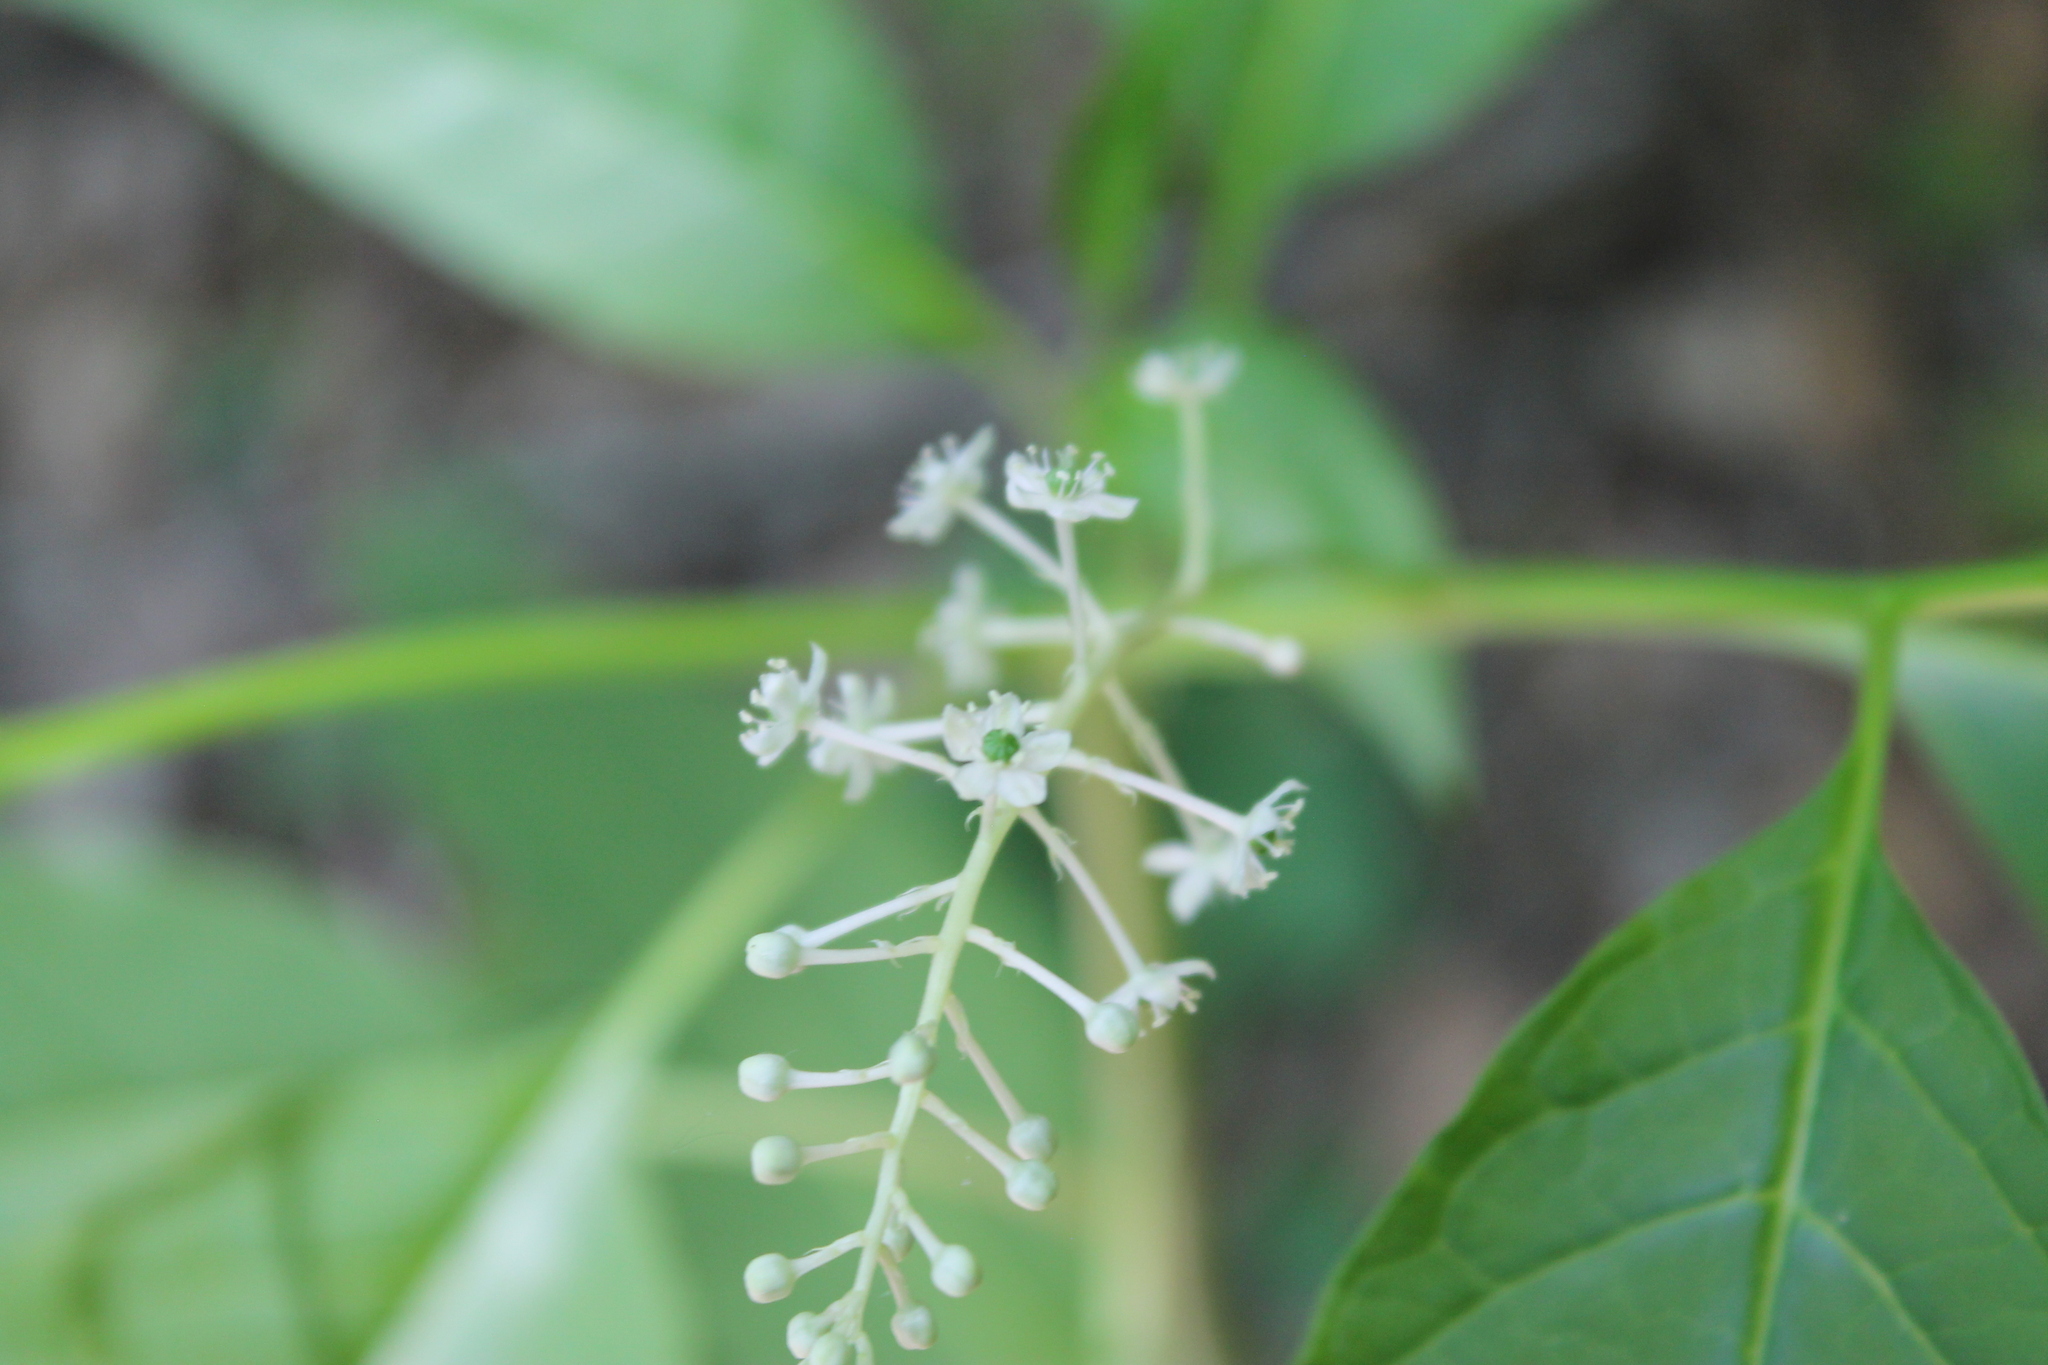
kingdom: Plantae
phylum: Tracheophyta
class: Magnoliopsida
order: Caryophyllales
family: Phytolaccaceae
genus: Phytolacca
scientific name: Phytolacca americana
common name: American pokeweed
